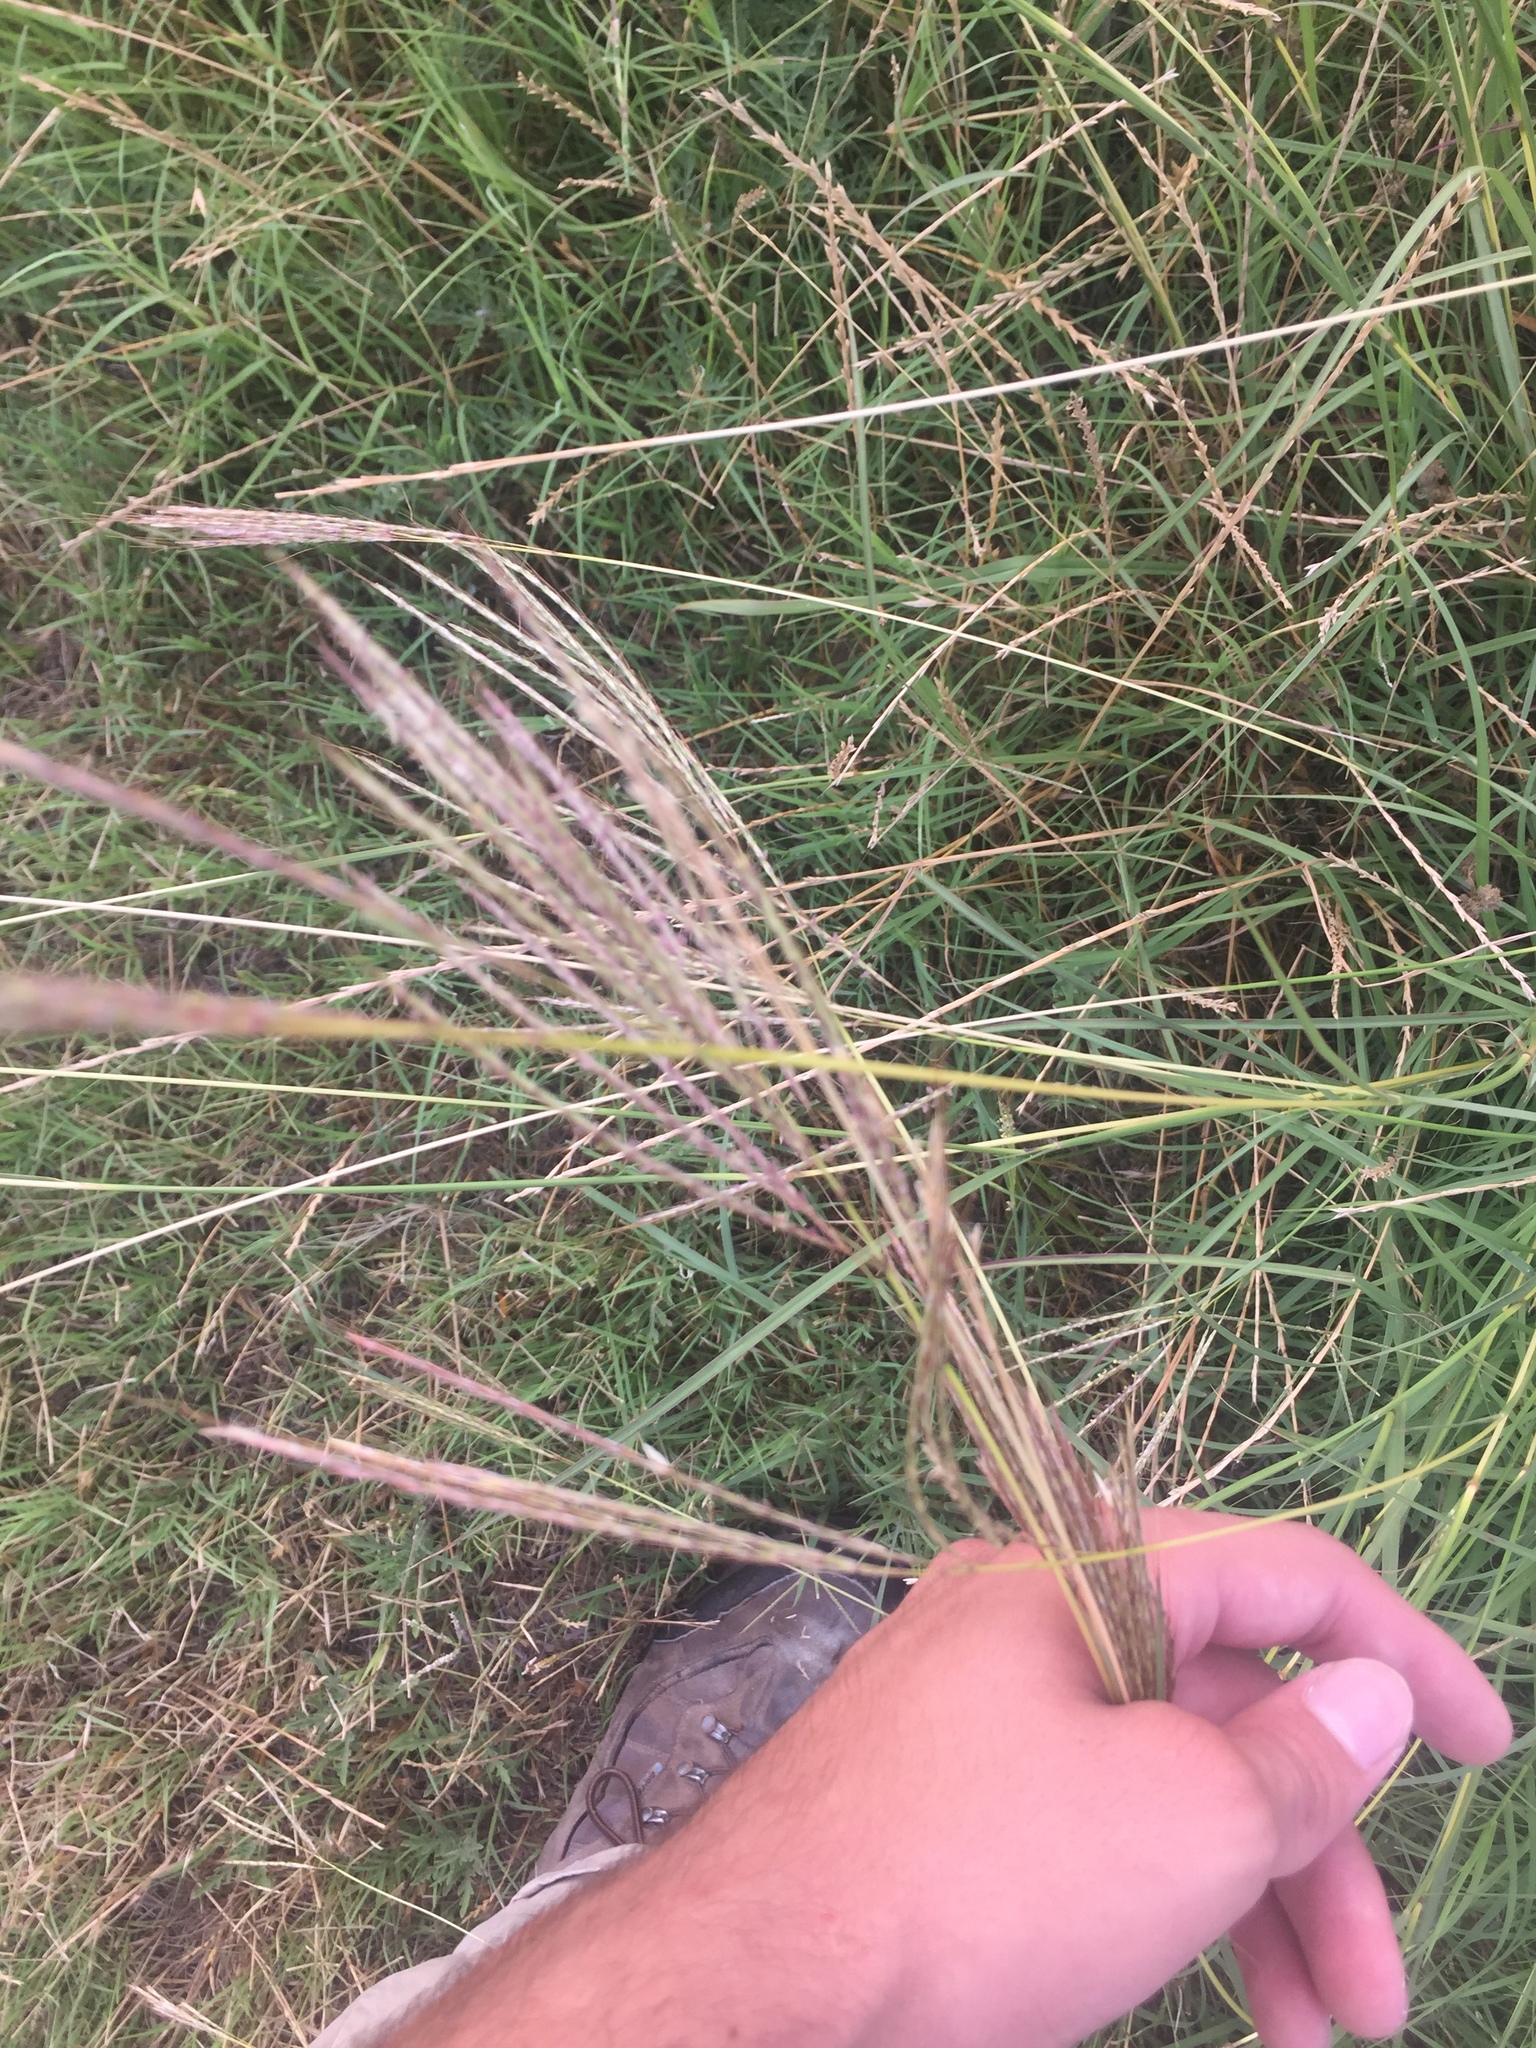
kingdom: Plantae
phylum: Tracheophyta
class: Liliopsida
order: Poales
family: Poaceae
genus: Bothriochloa
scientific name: Bothriochloa ischaemum
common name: Yellow bluestem
